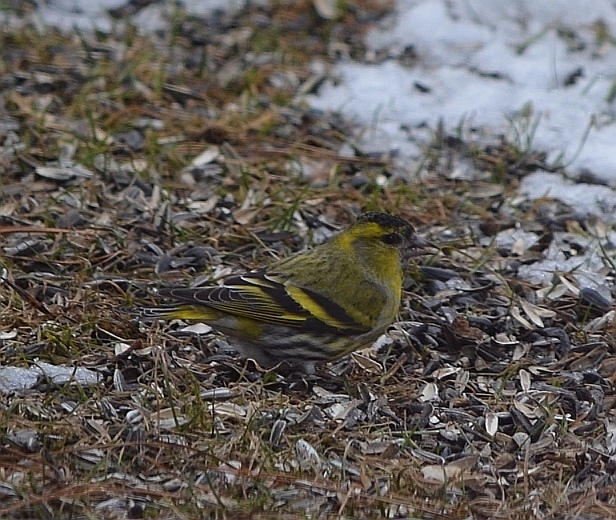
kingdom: Animalia
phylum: Chordata
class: Aves
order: Passeriformes
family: Fringillidae
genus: Spinus
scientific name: Spinus spinus
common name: Eurasian siskin
